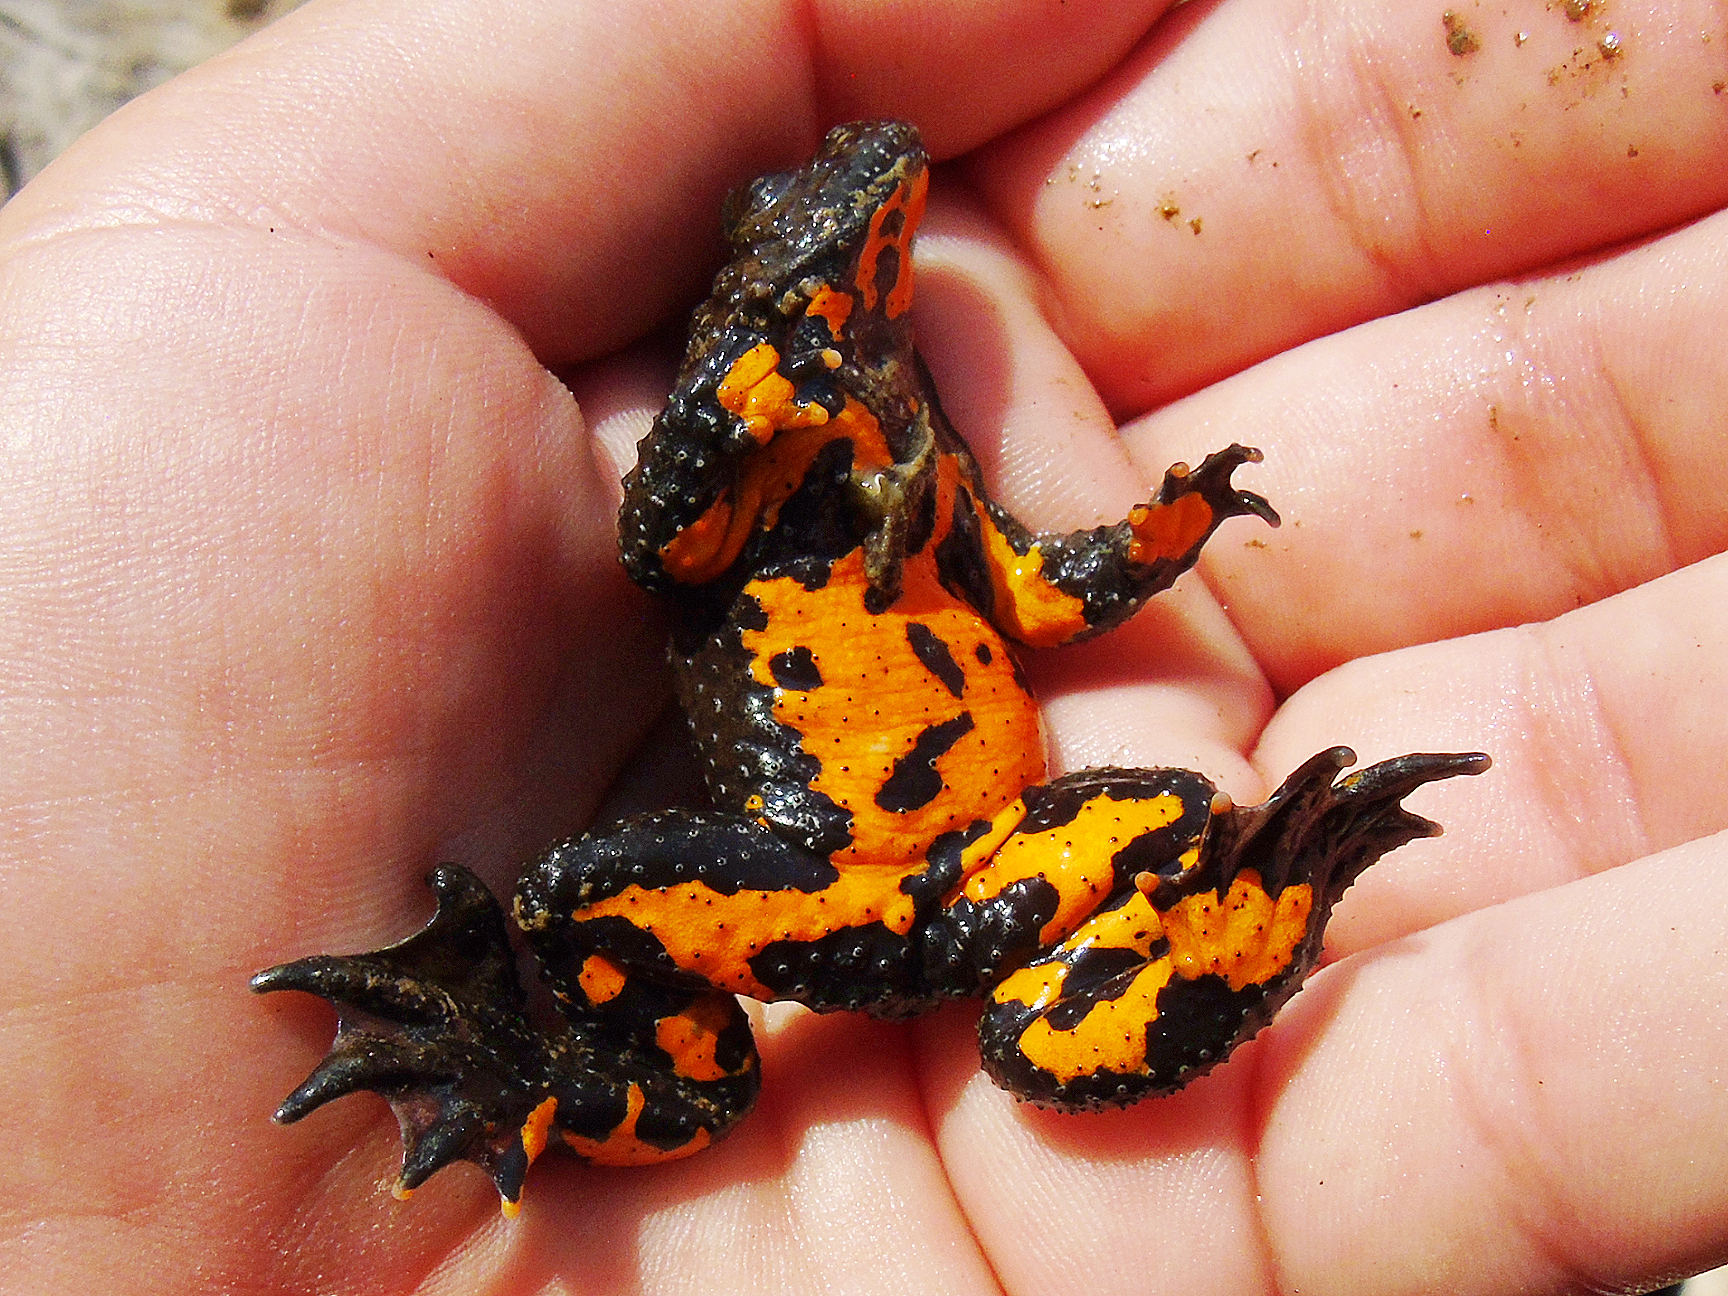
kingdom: Animalia
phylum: Chordata
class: Amphibia
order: Anura
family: Bombinatoridae
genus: Bombina
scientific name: Bombina variegata
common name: Yellow-bellied toad
